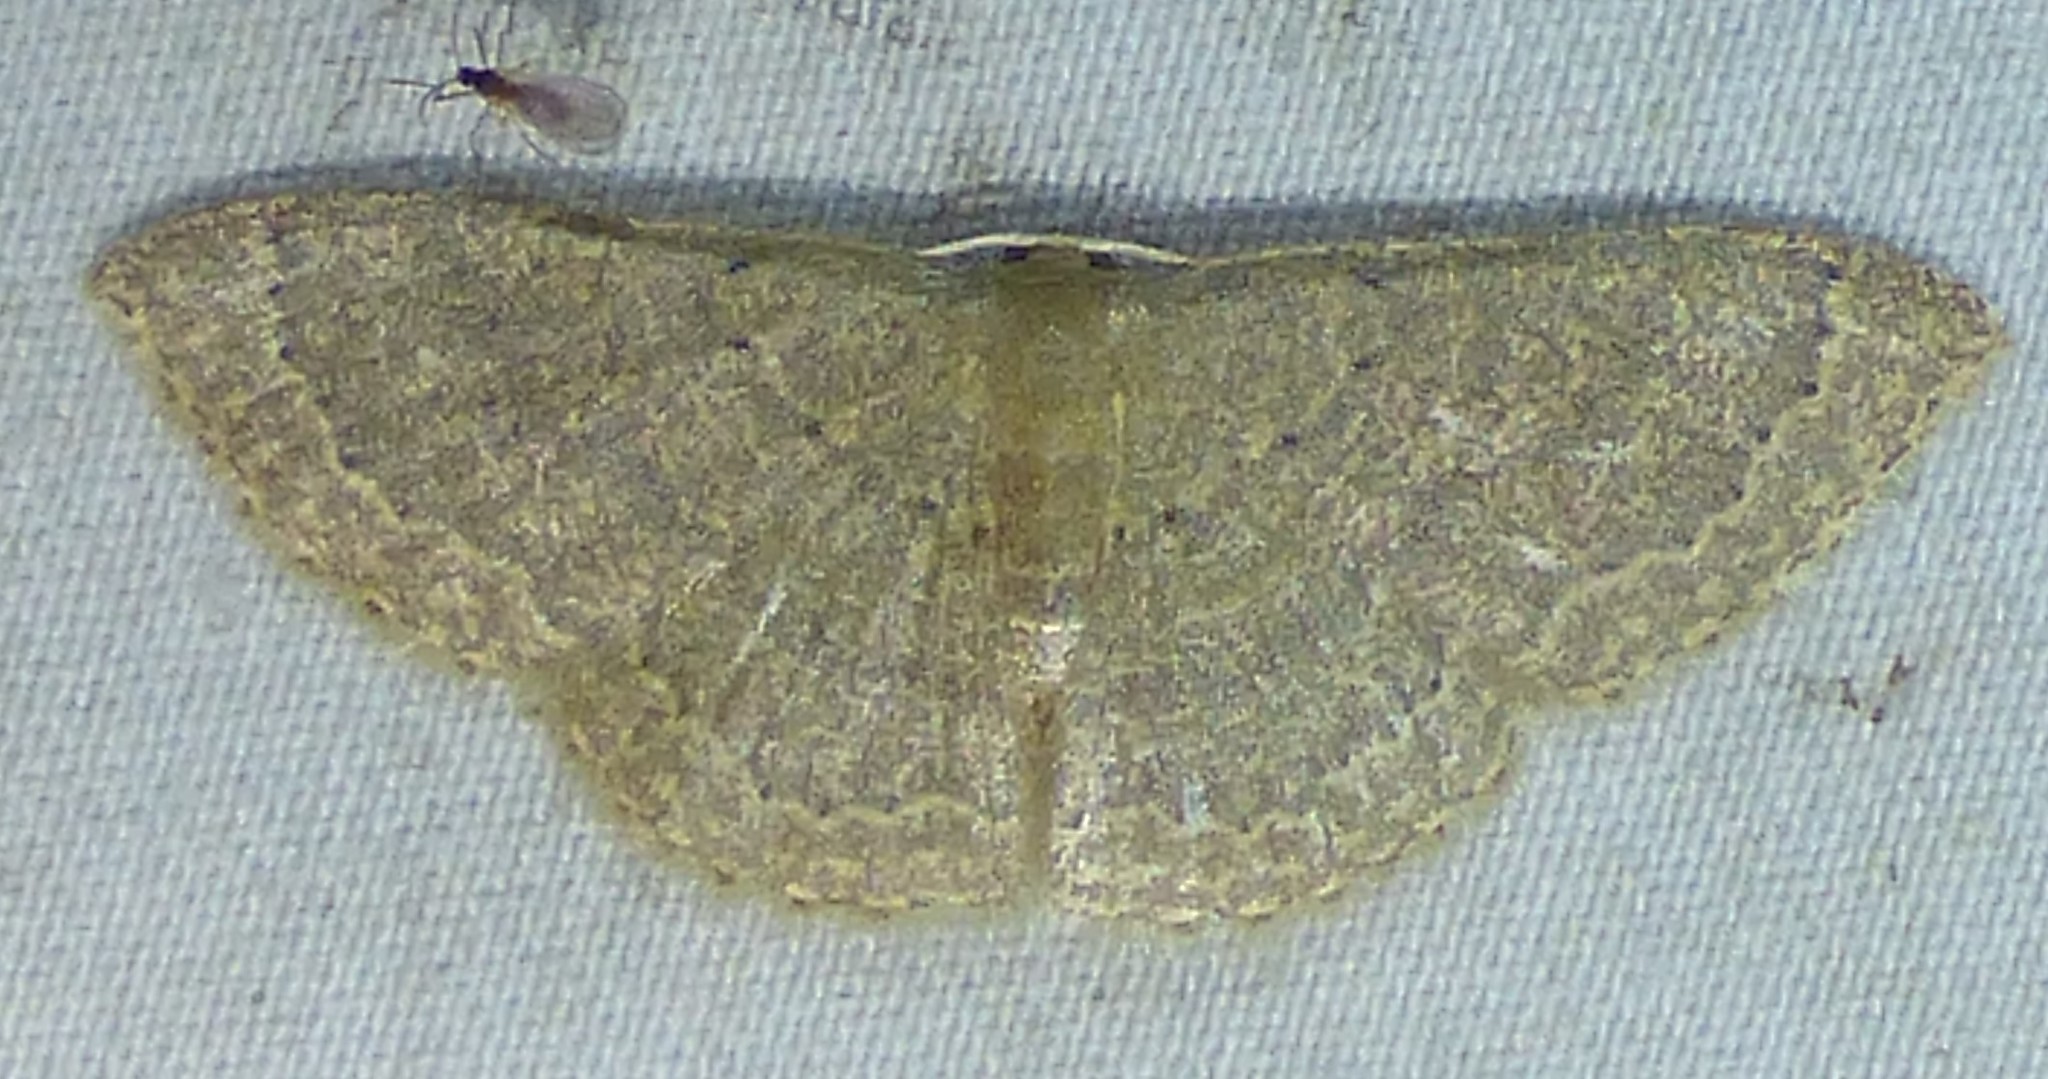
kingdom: Animalia
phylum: Arthropoda
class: Insecta
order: Lepidoptera
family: Geometridae
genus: Pleuroprucha
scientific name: Pleuroprucha insulsaria
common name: Common tan wave
